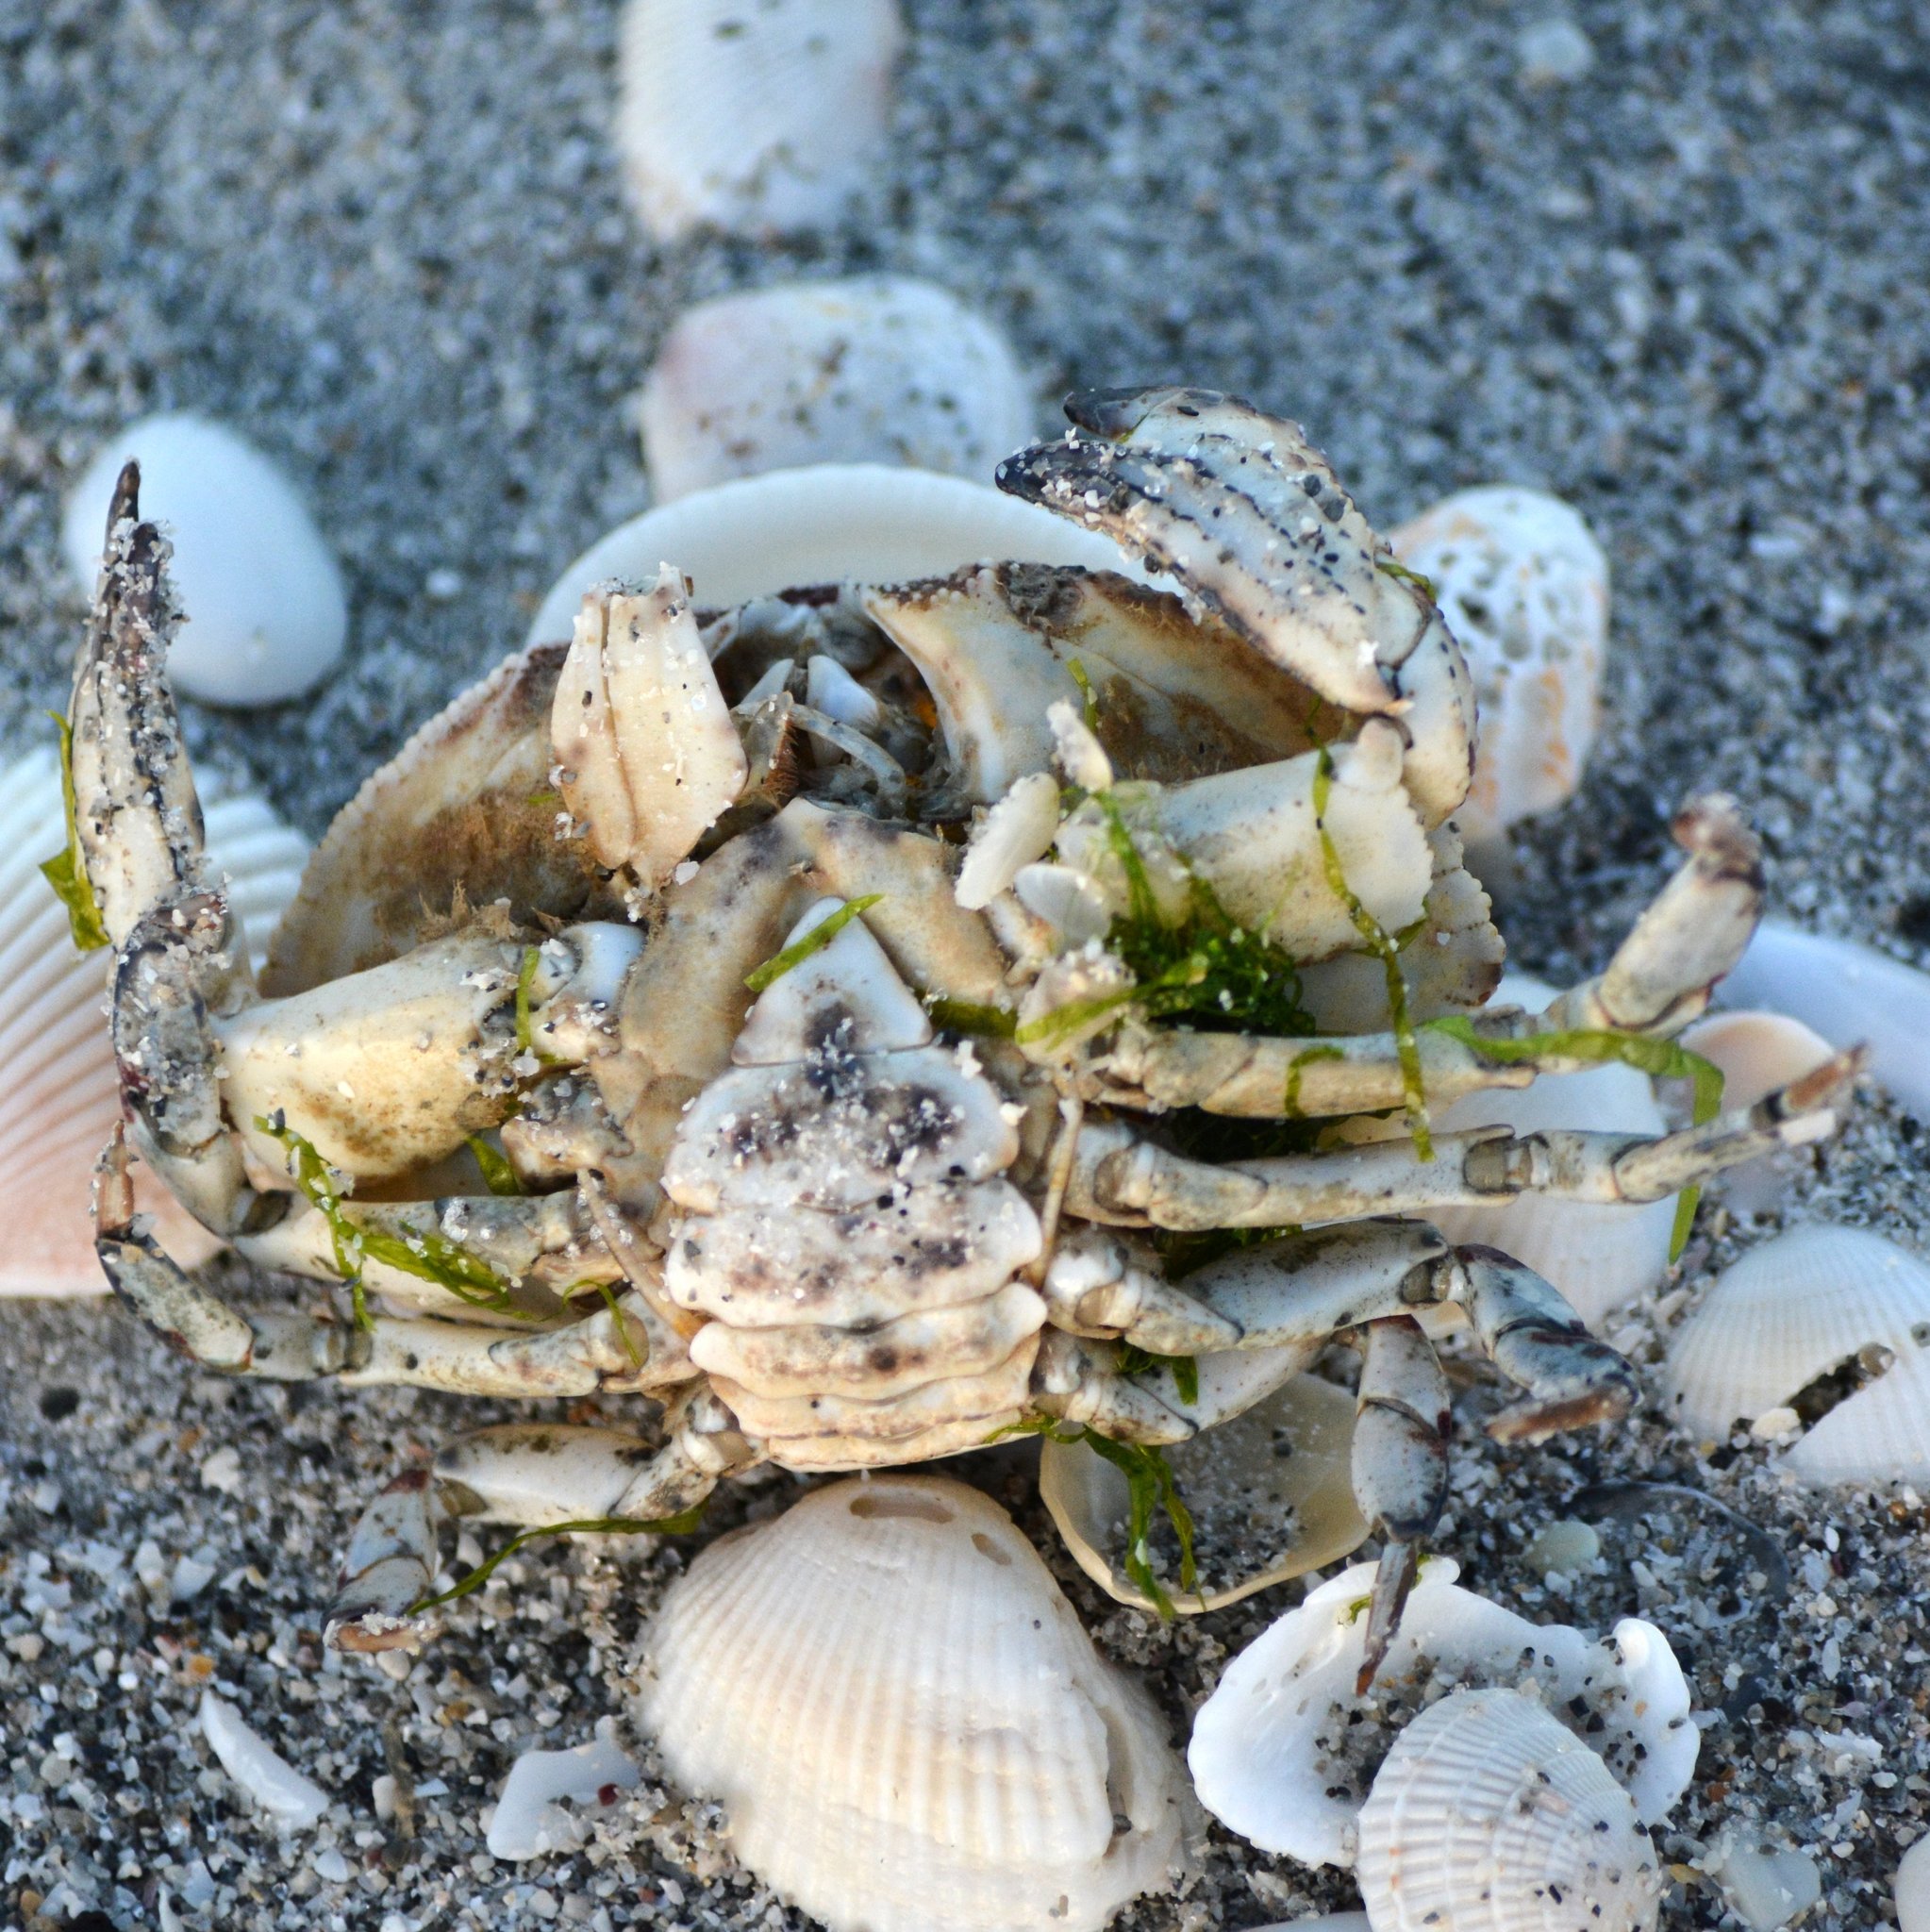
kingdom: Animalia
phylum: Arthropoda
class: Malacostraca
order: Decapoda
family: Aethridae
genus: Hepatus
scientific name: Hepatus epheliticus
